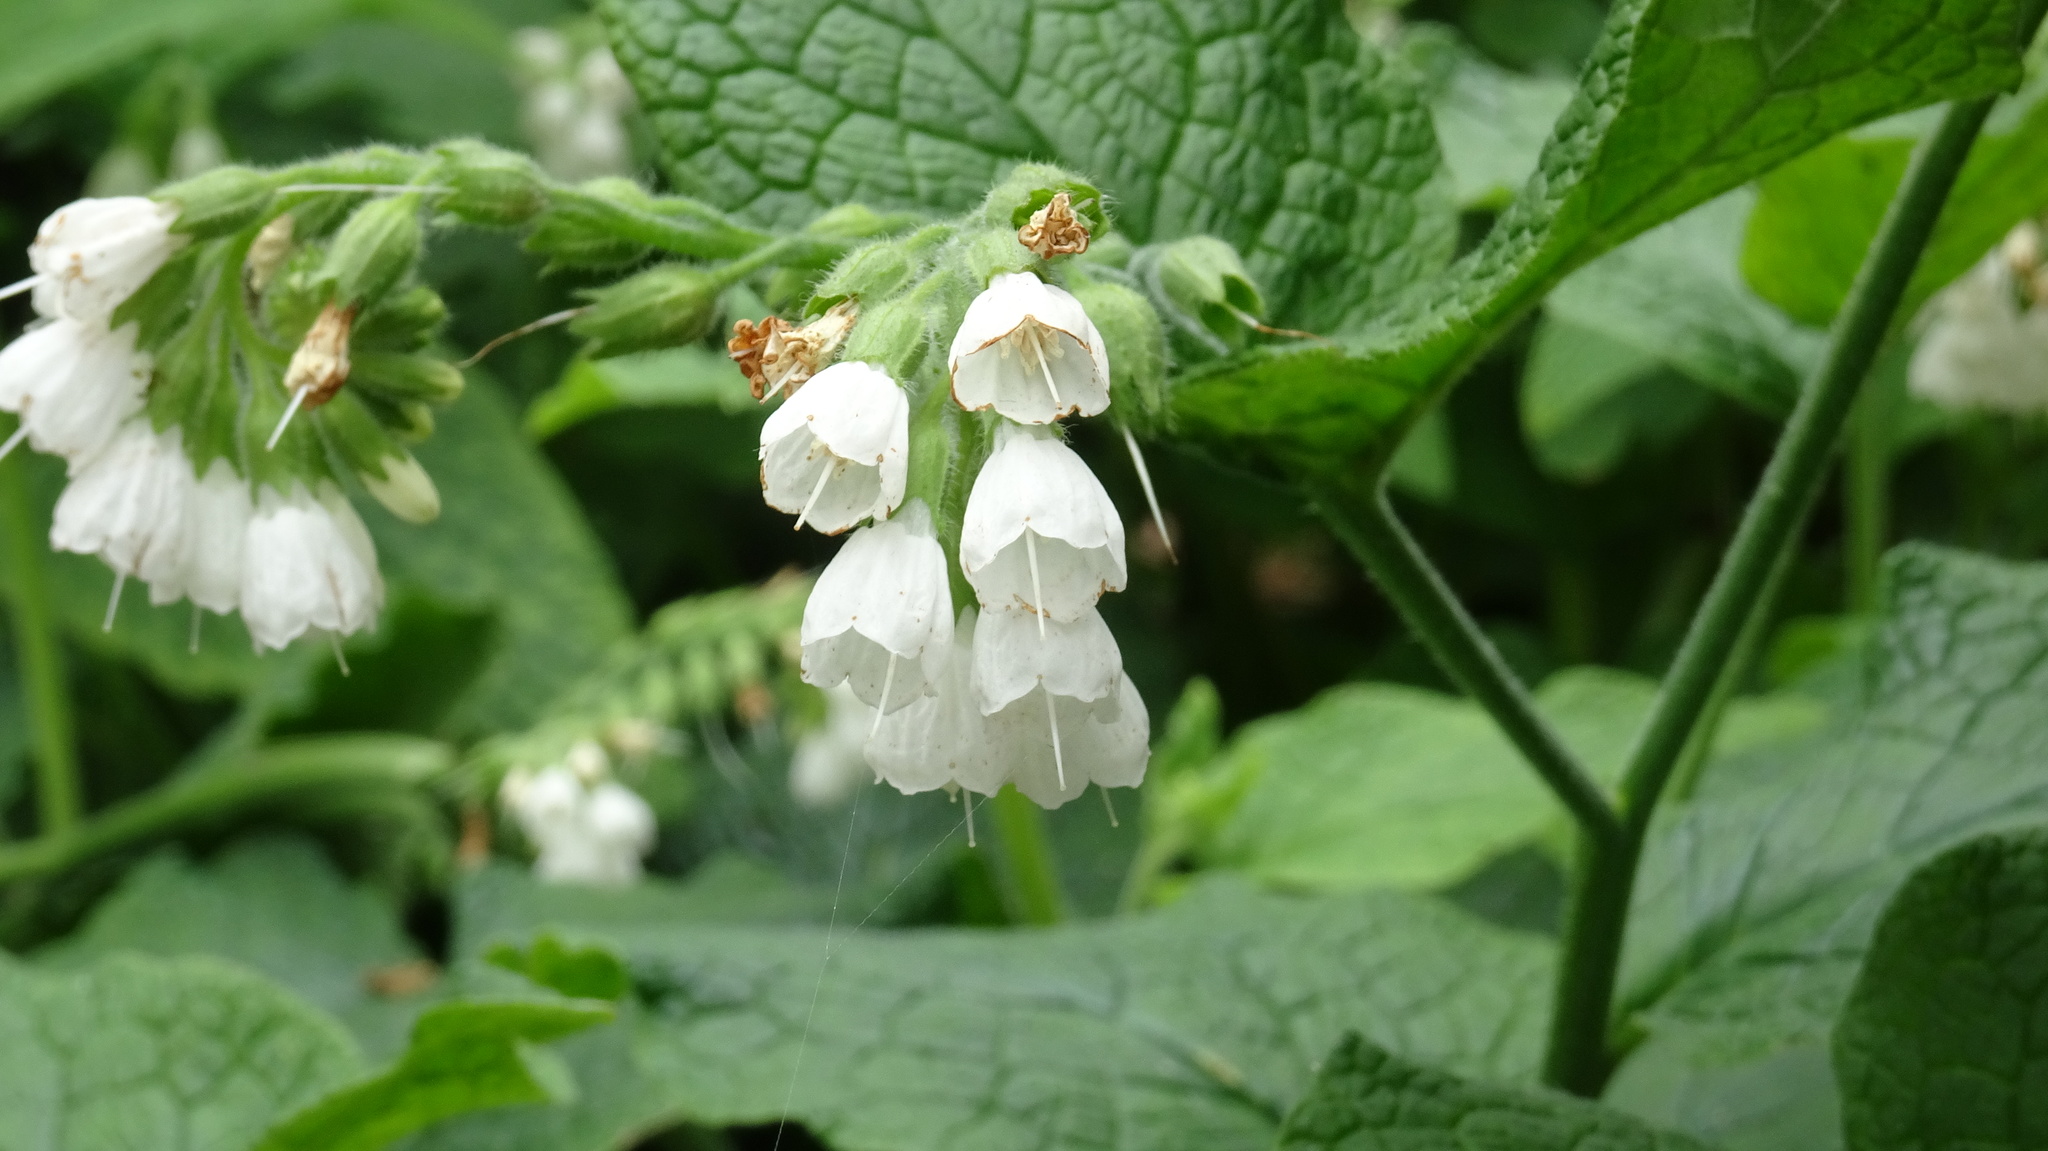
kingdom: Plantae
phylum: Tracheophyta
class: Magnoliopsida
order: Boraginales
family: Boraginaceae
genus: Symphytum
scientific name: Symphytum orientale
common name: White comfrey
